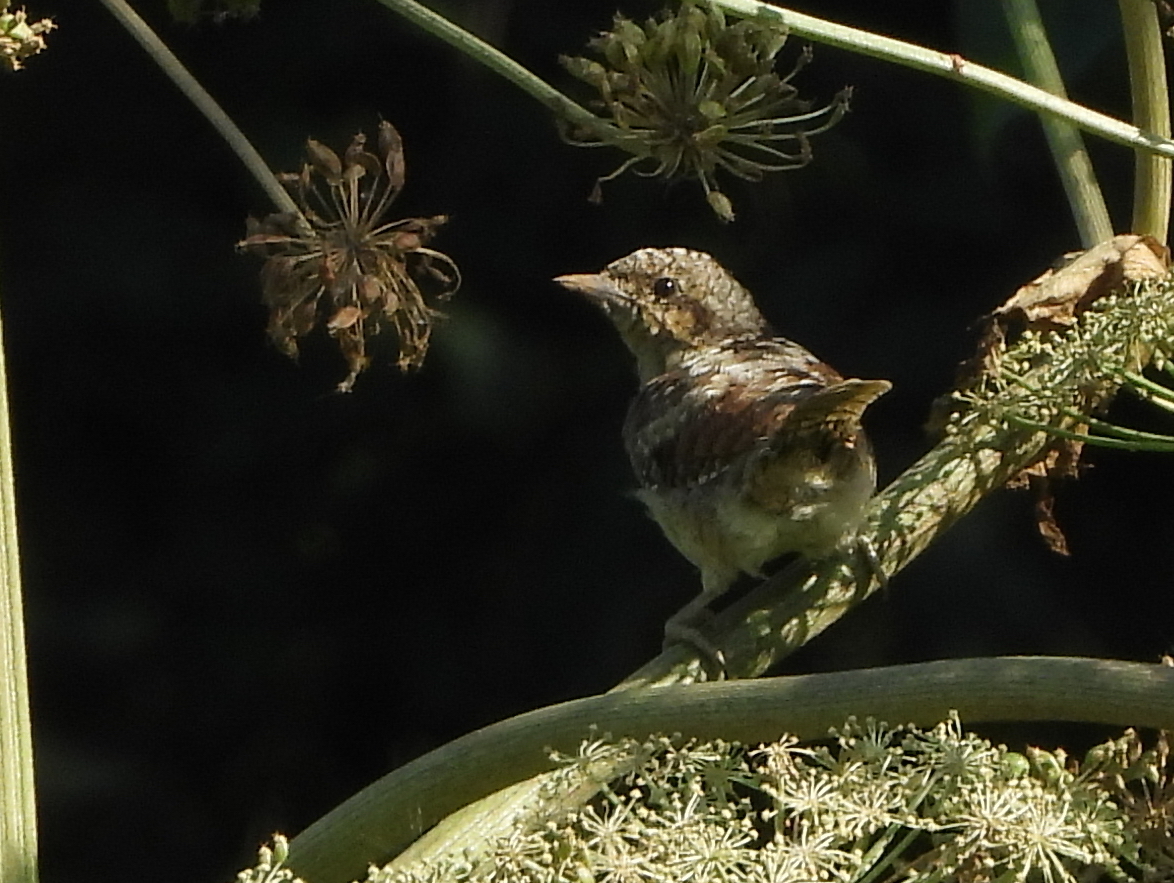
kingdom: Animalia
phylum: Chordata
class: Aves
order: Piciformes
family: Picidae
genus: Jynx
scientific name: Jynx torquilla
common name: Eurasian wryneck
